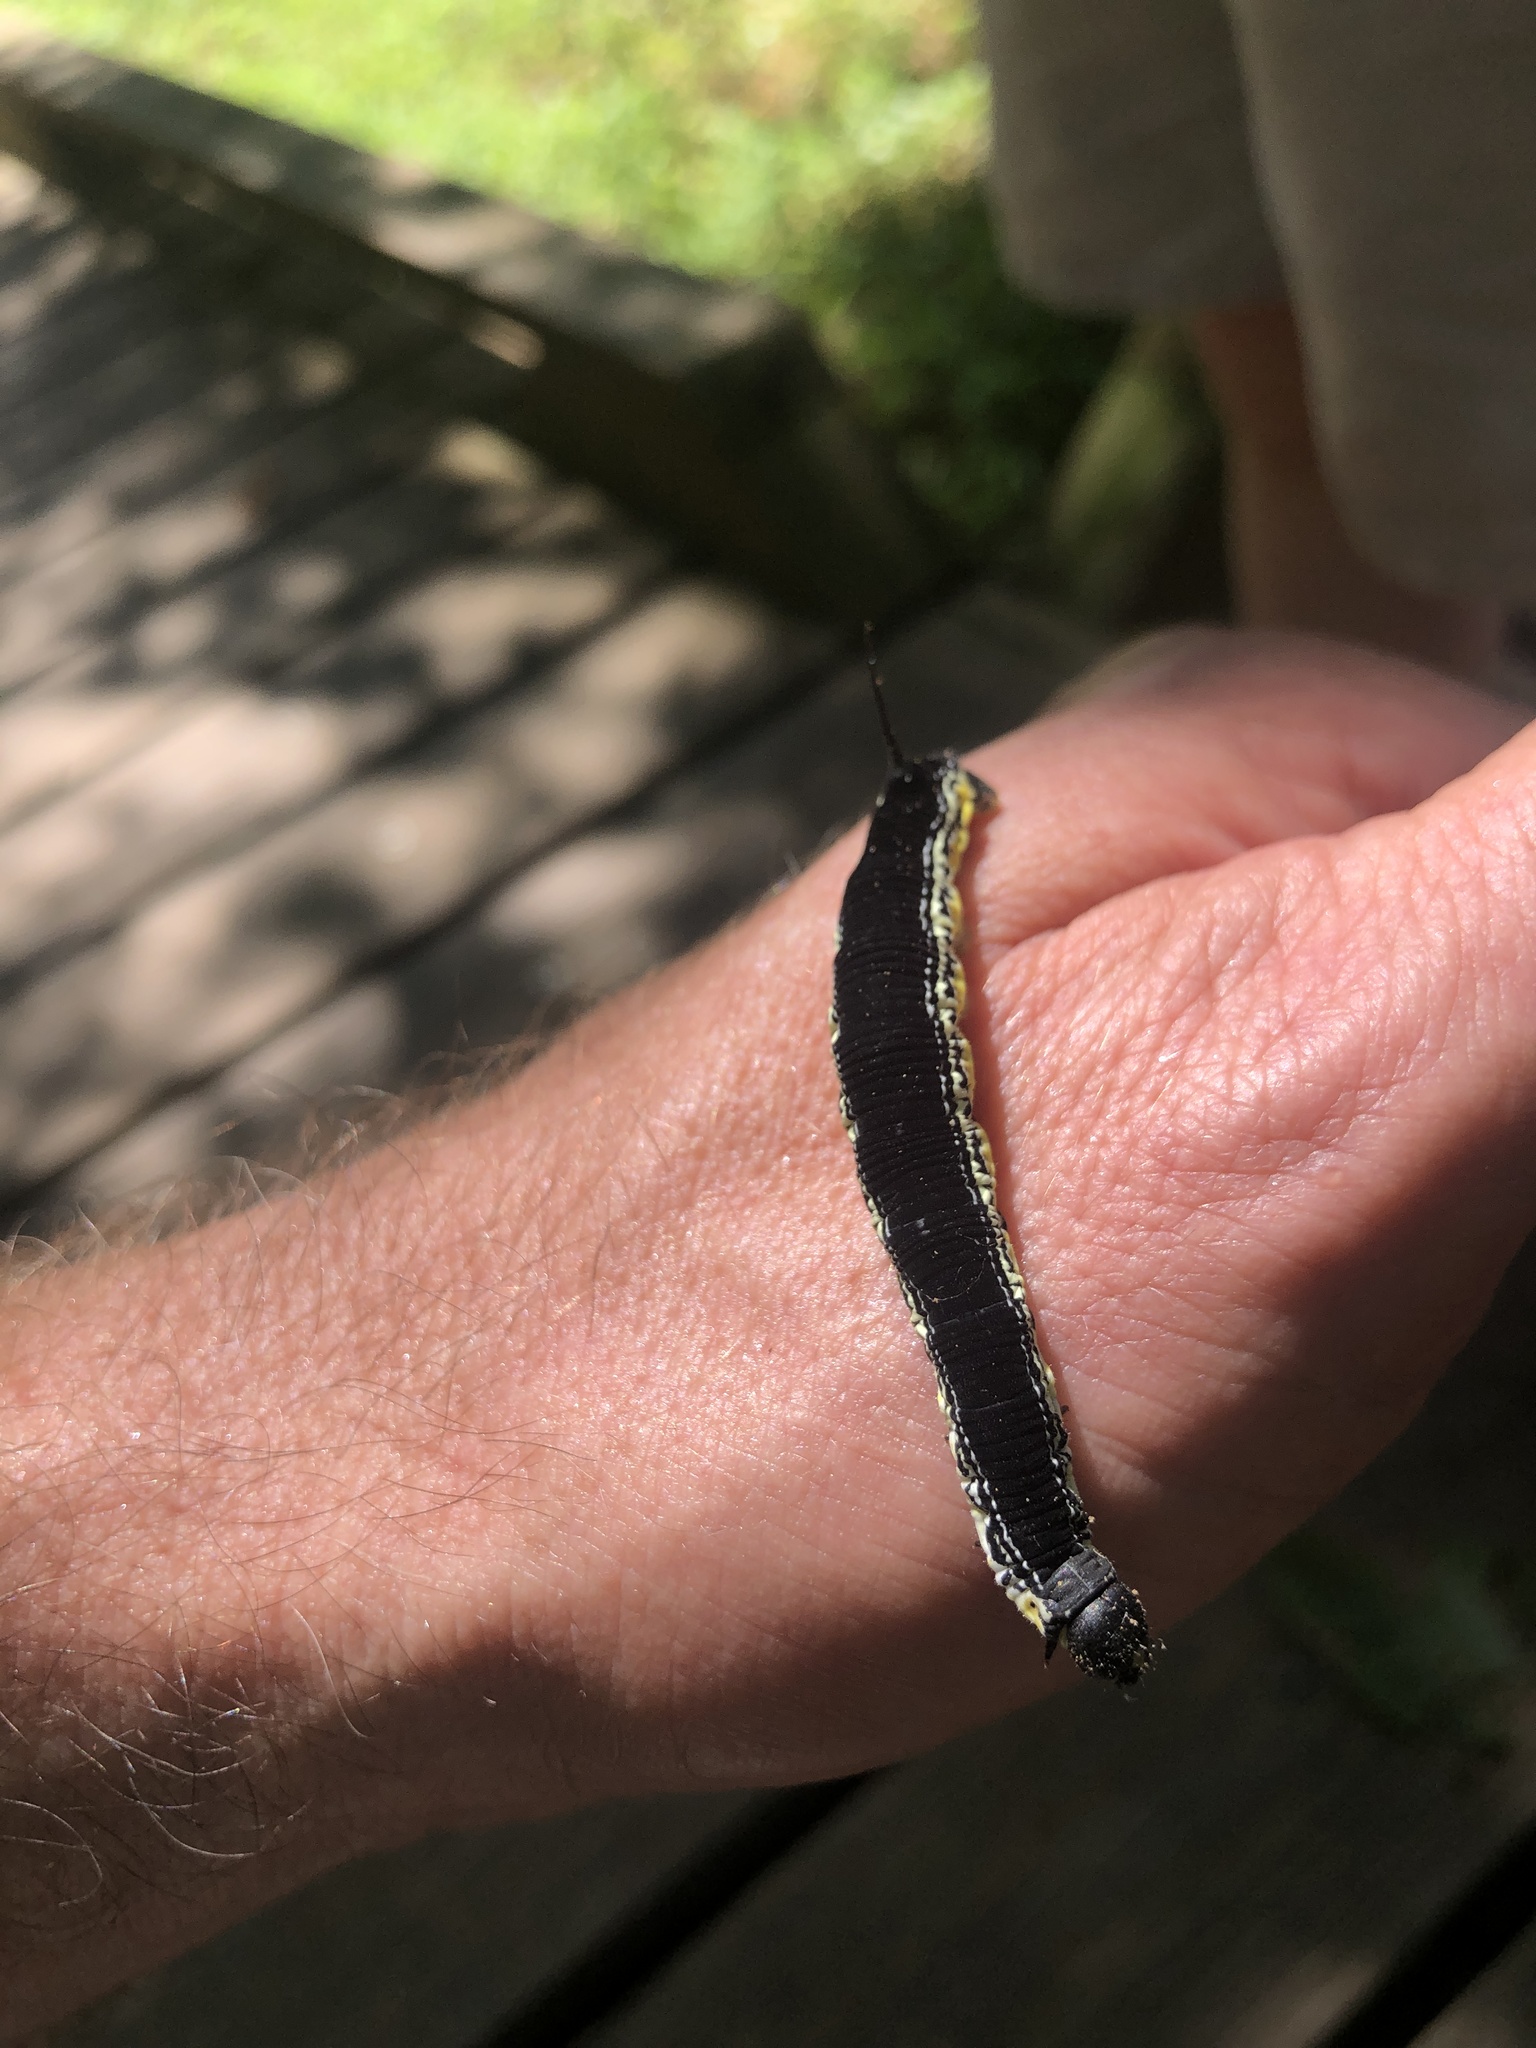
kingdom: Animalia
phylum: Arthropoda
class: Insecta
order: Lepidoptera
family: Sphingidae
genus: Ceratomia
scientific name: Ceratomia catalpae
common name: Catalpa hornworm
